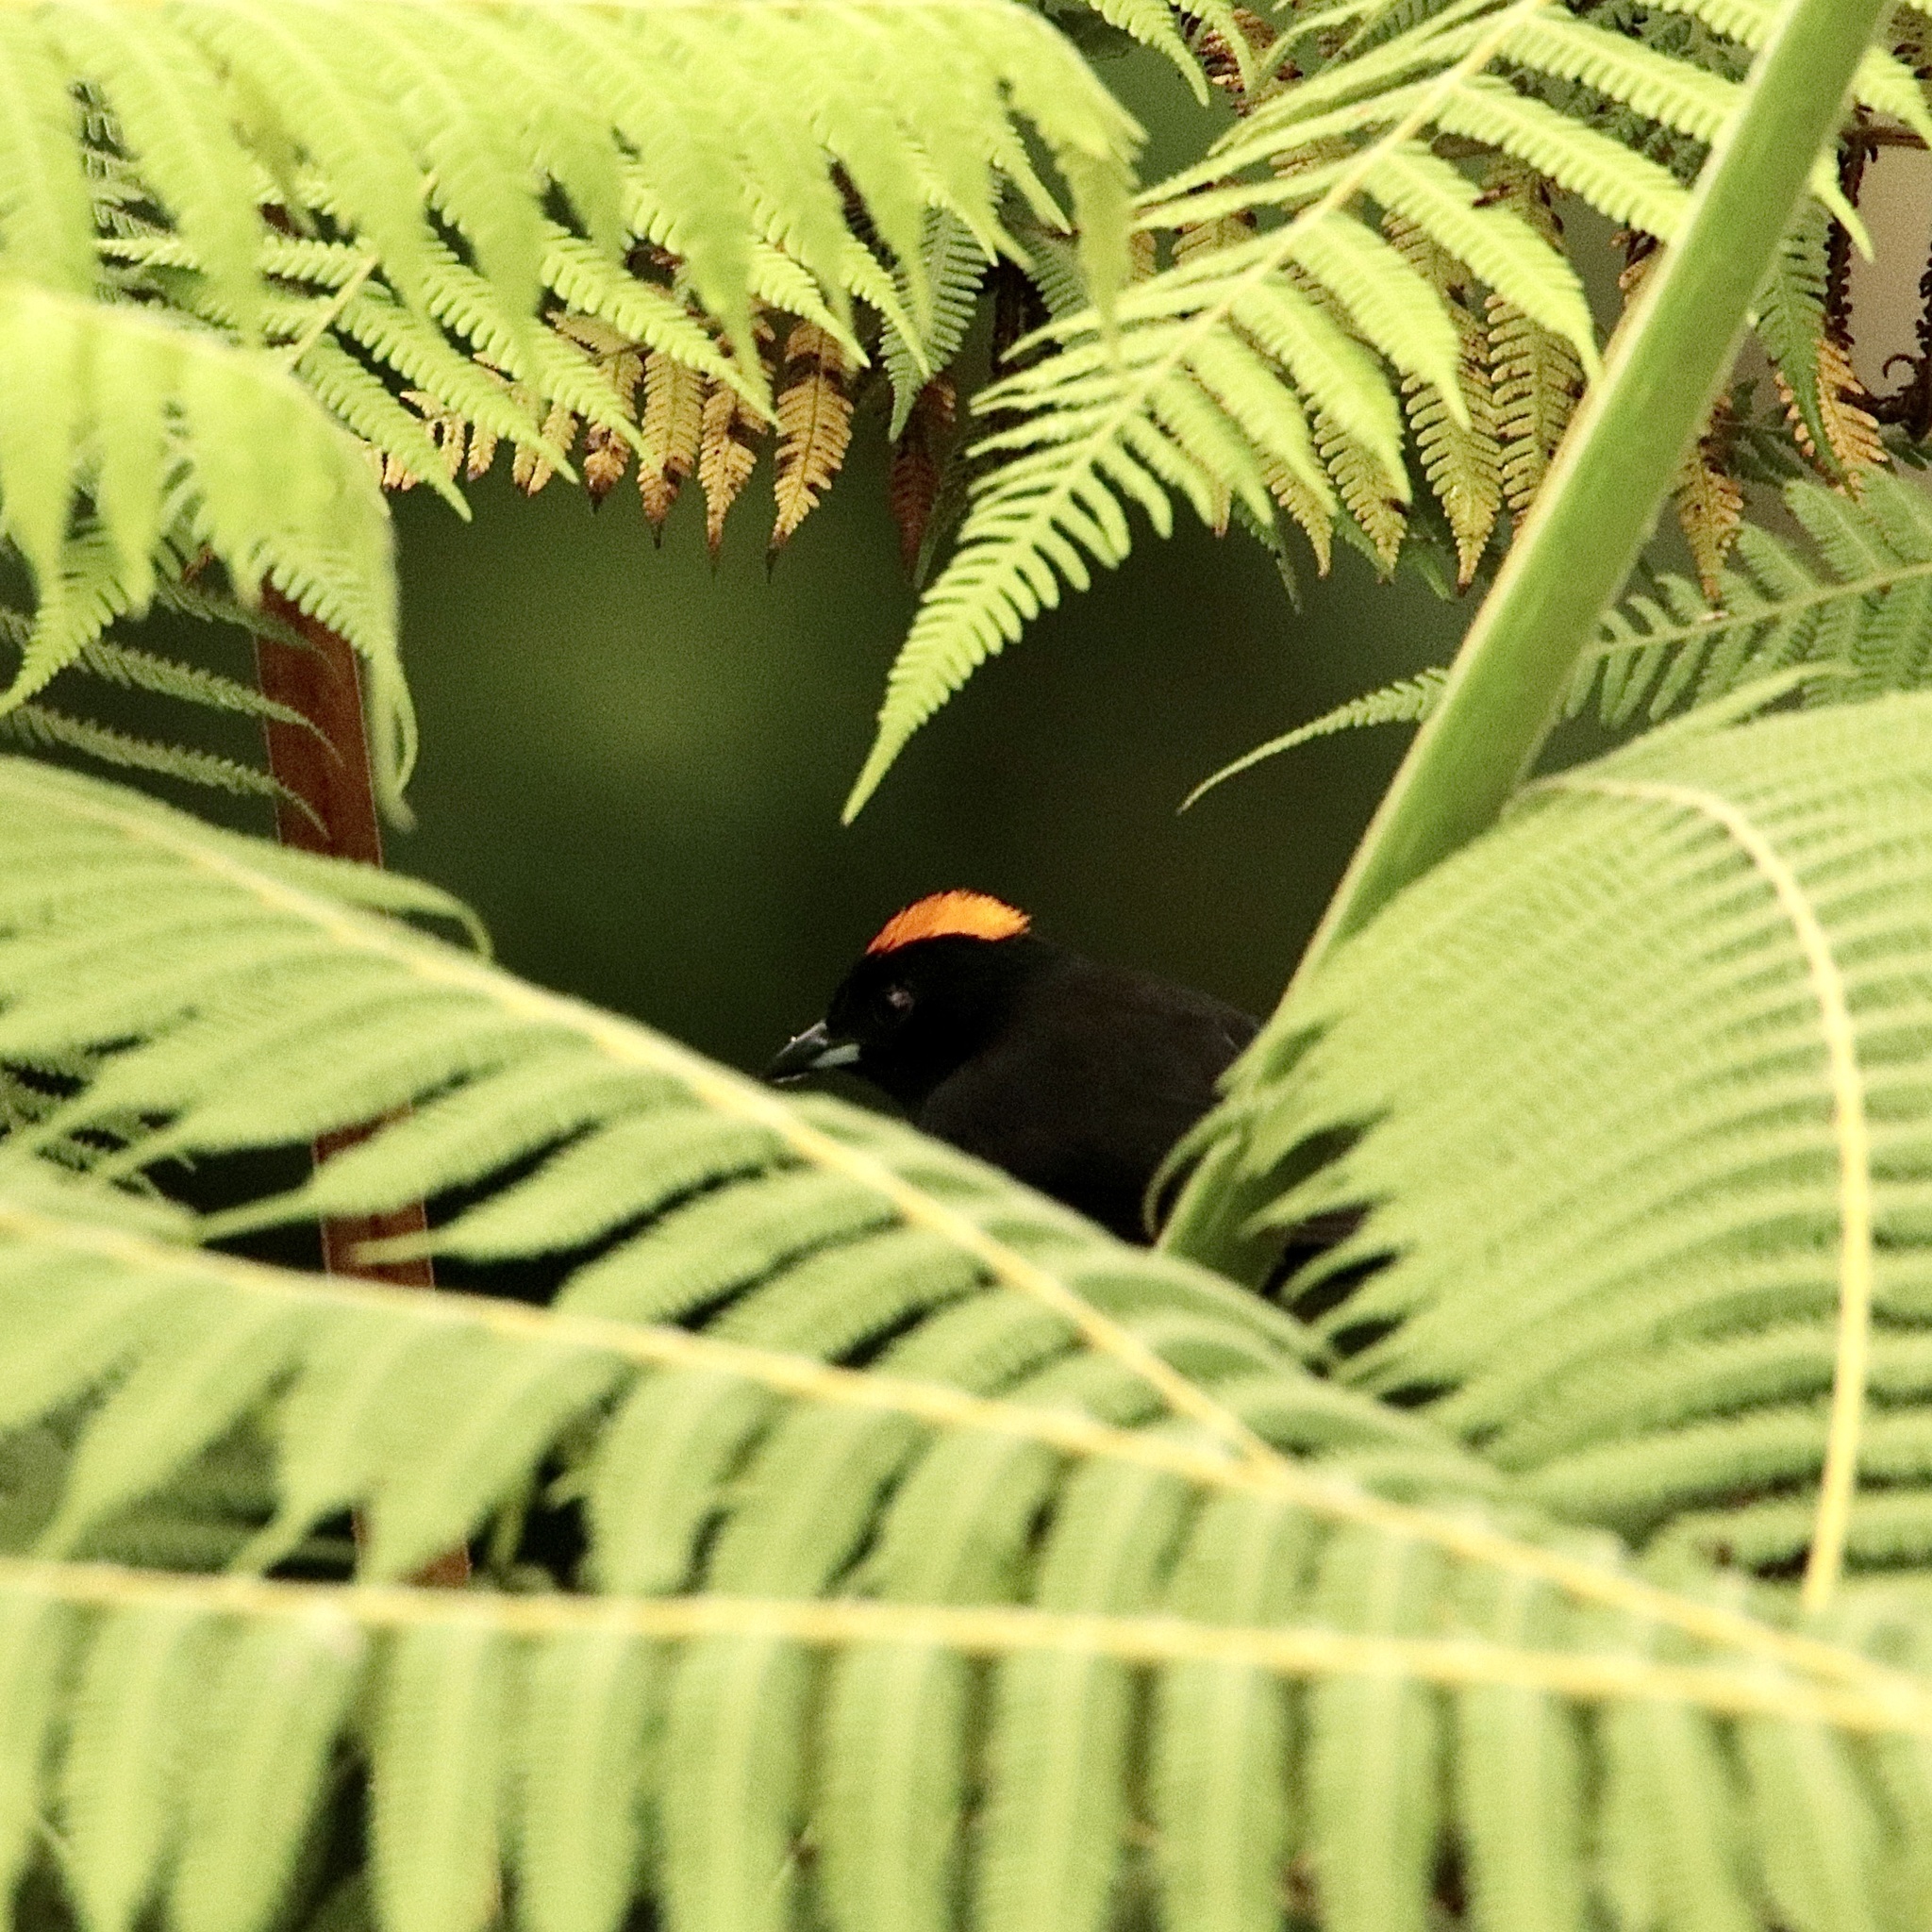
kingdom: Animalia
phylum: Chordata
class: Aves
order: Passeriformes
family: Thraupidae
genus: Tachyphonus
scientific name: Tachyphonus delatrii
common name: Tawny-crested tanager
